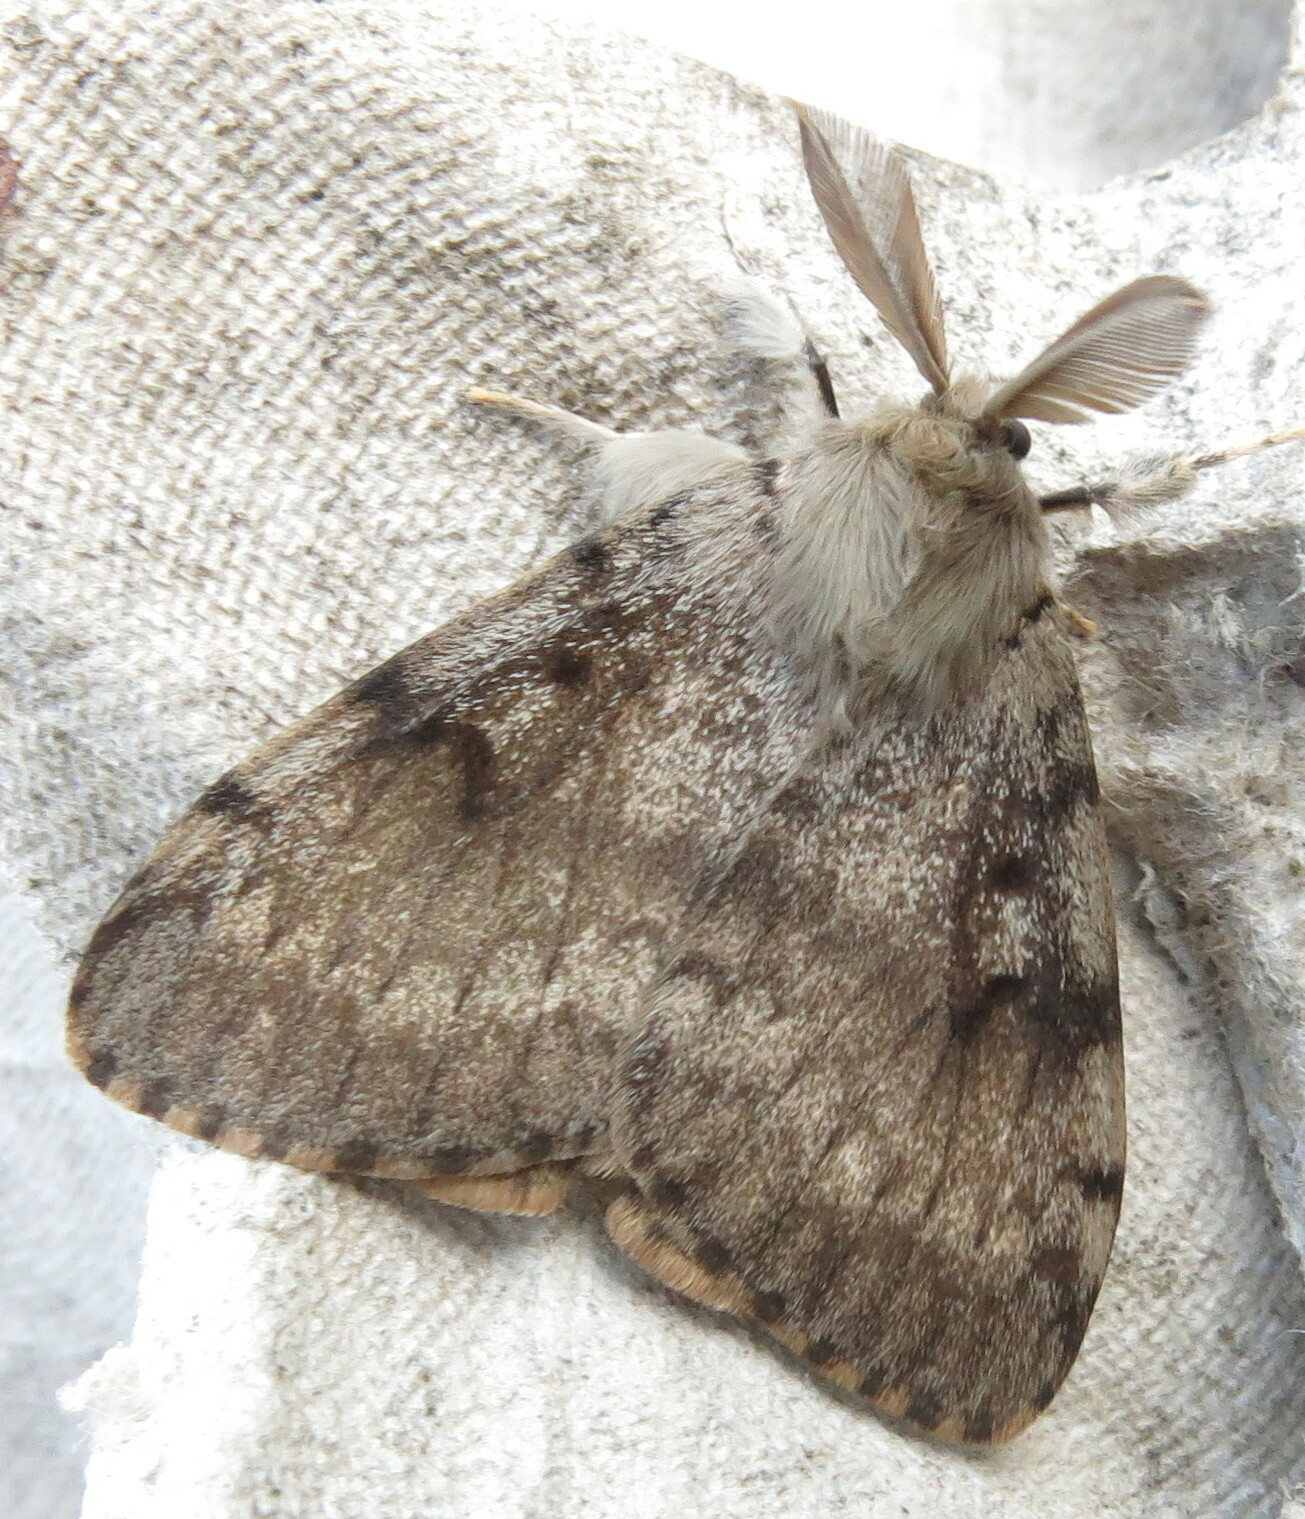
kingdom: Animalia
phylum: Arthropoda
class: Insecta
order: Lepidoptera
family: Erebidae
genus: Lymantria
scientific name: Lymantria dispar
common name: Gypsy moth
